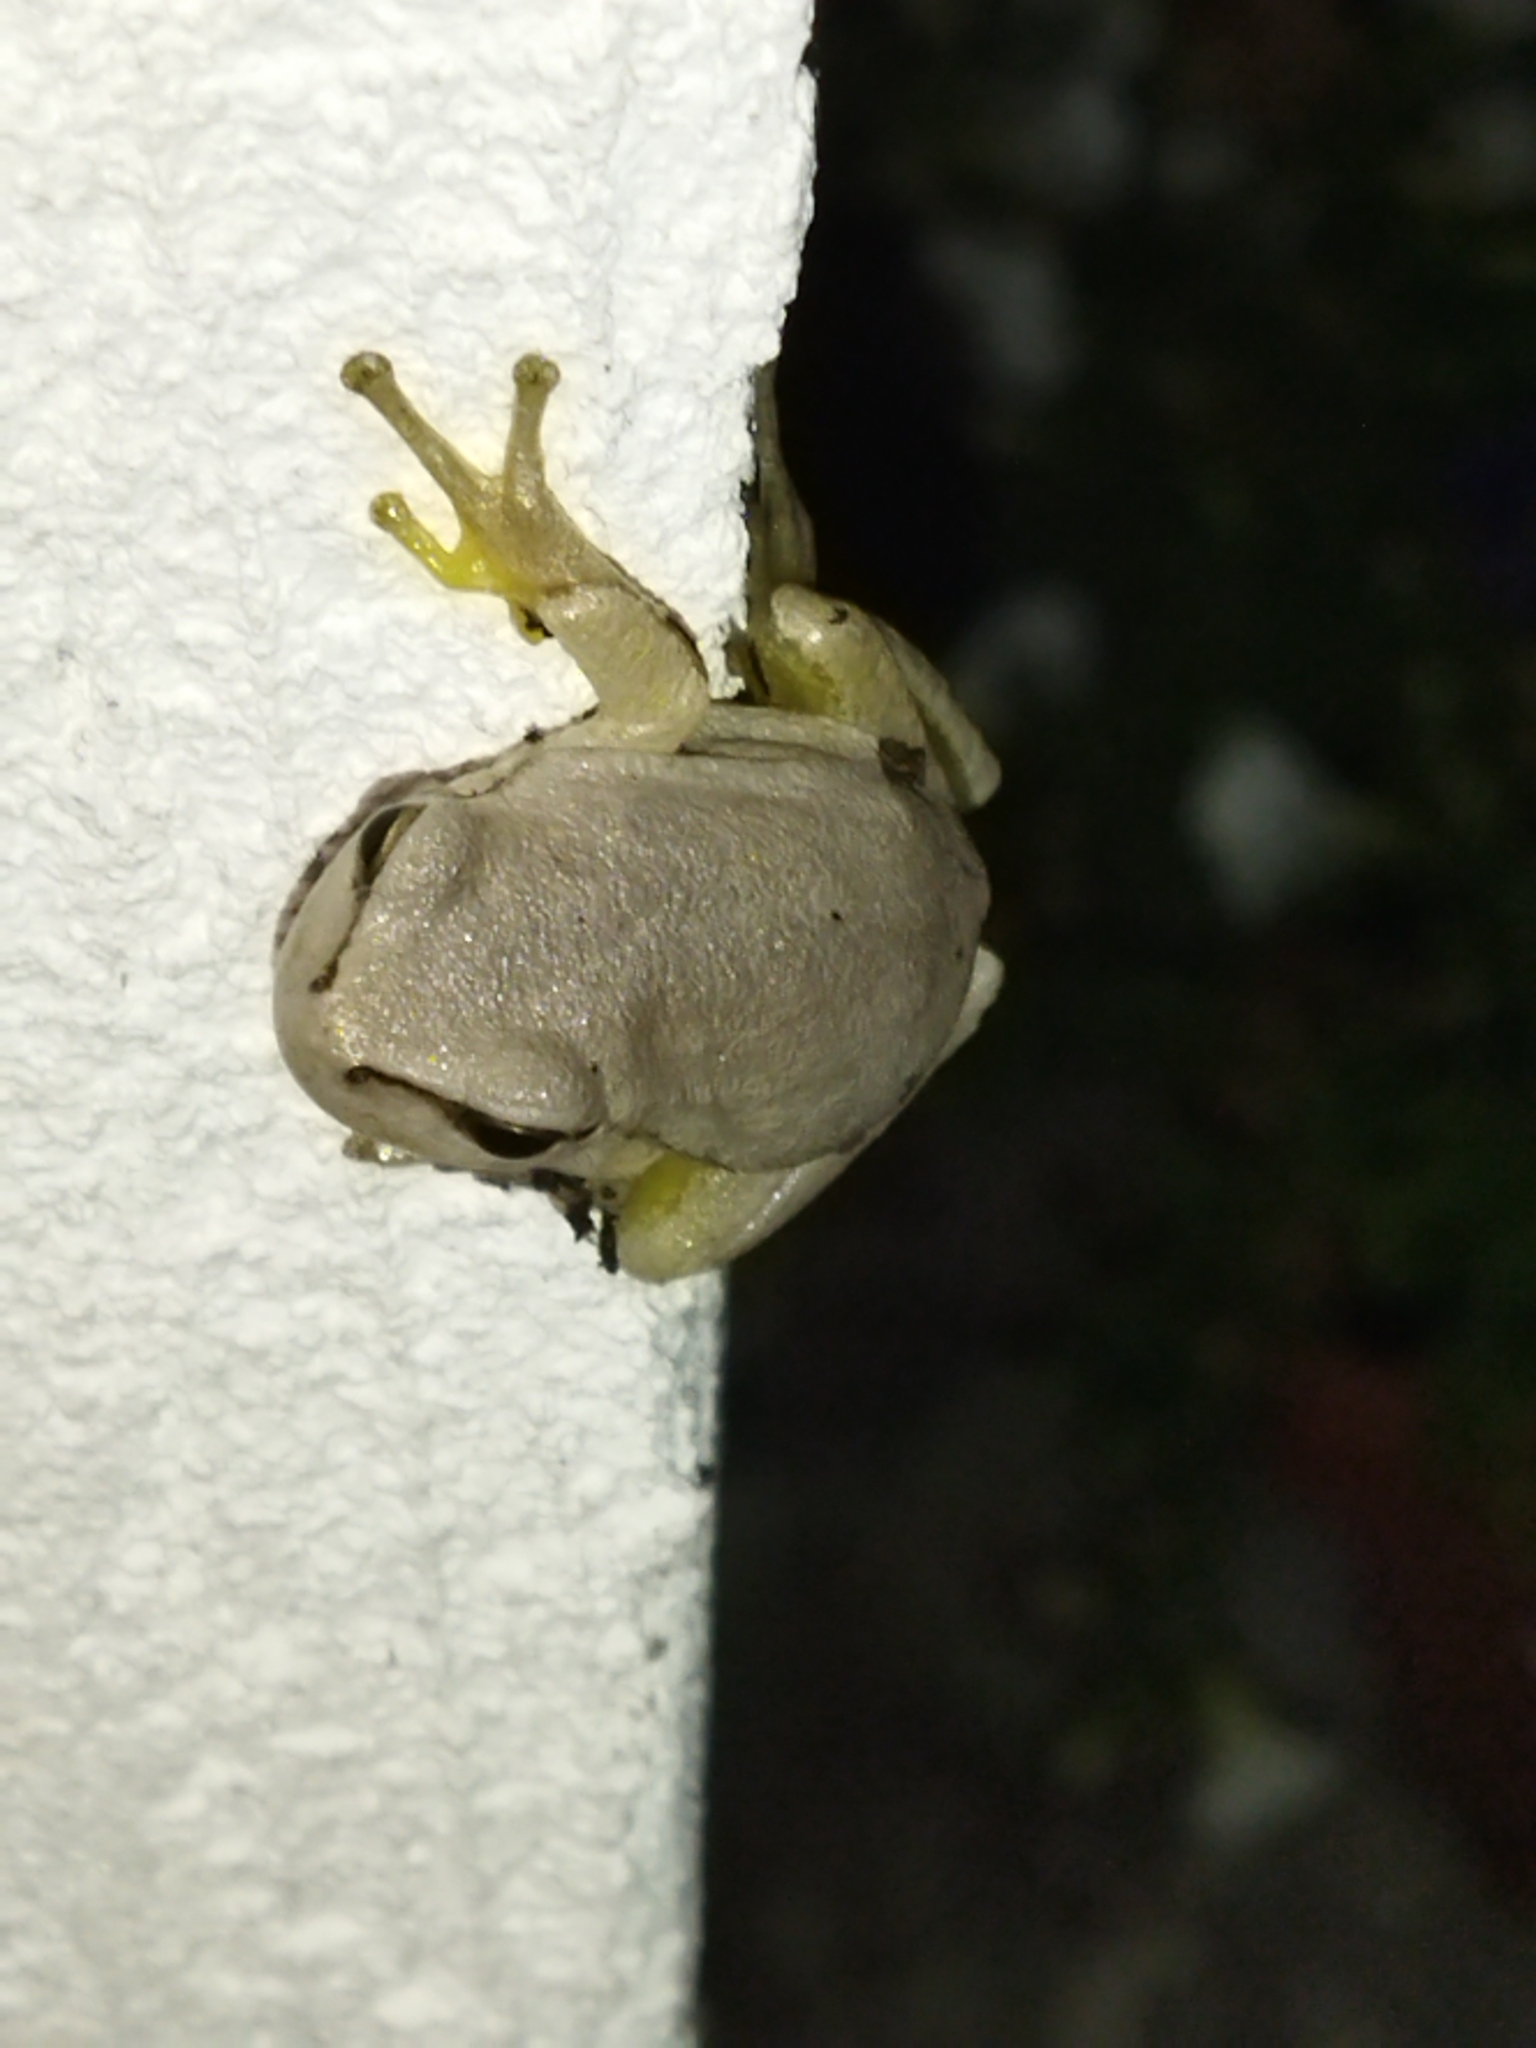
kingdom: Animalia
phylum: Chordata
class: Amphibia
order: Anura
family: Hylidae
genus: Hyla
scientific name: Hyla orientalis
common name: Caucasian treefrog
